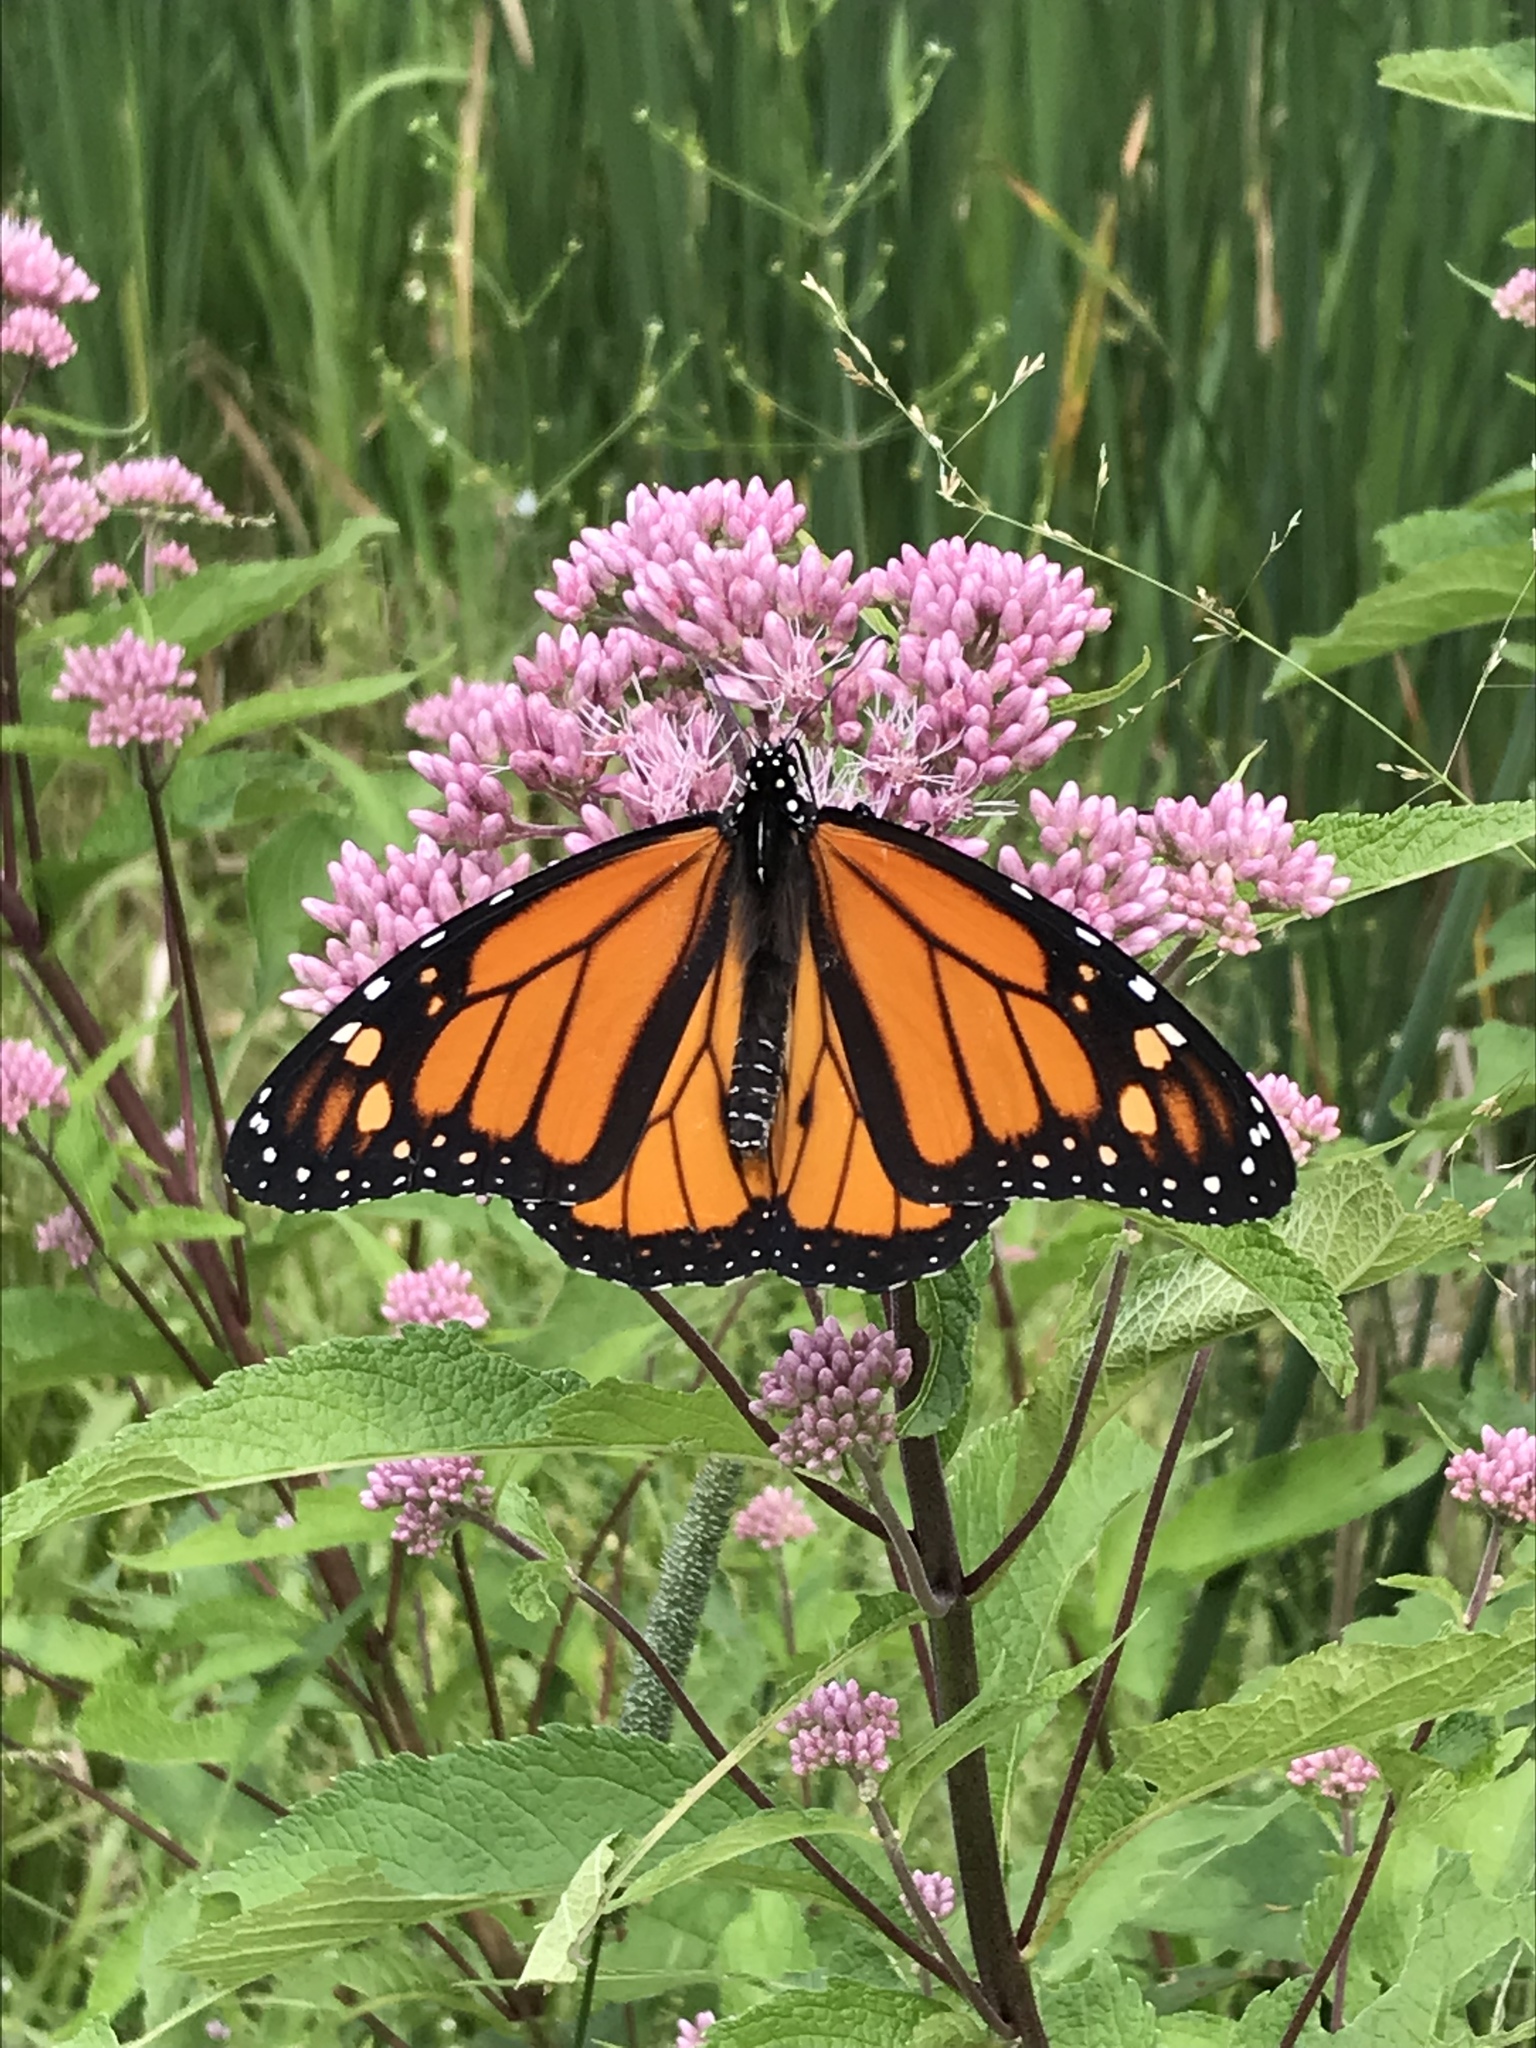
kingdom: Animalia
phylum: Arthropoda
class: Insecta
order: Lepidoptera
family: Nymphalidae
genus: Danaus
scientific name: Danaus plexippus
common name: Monarch
